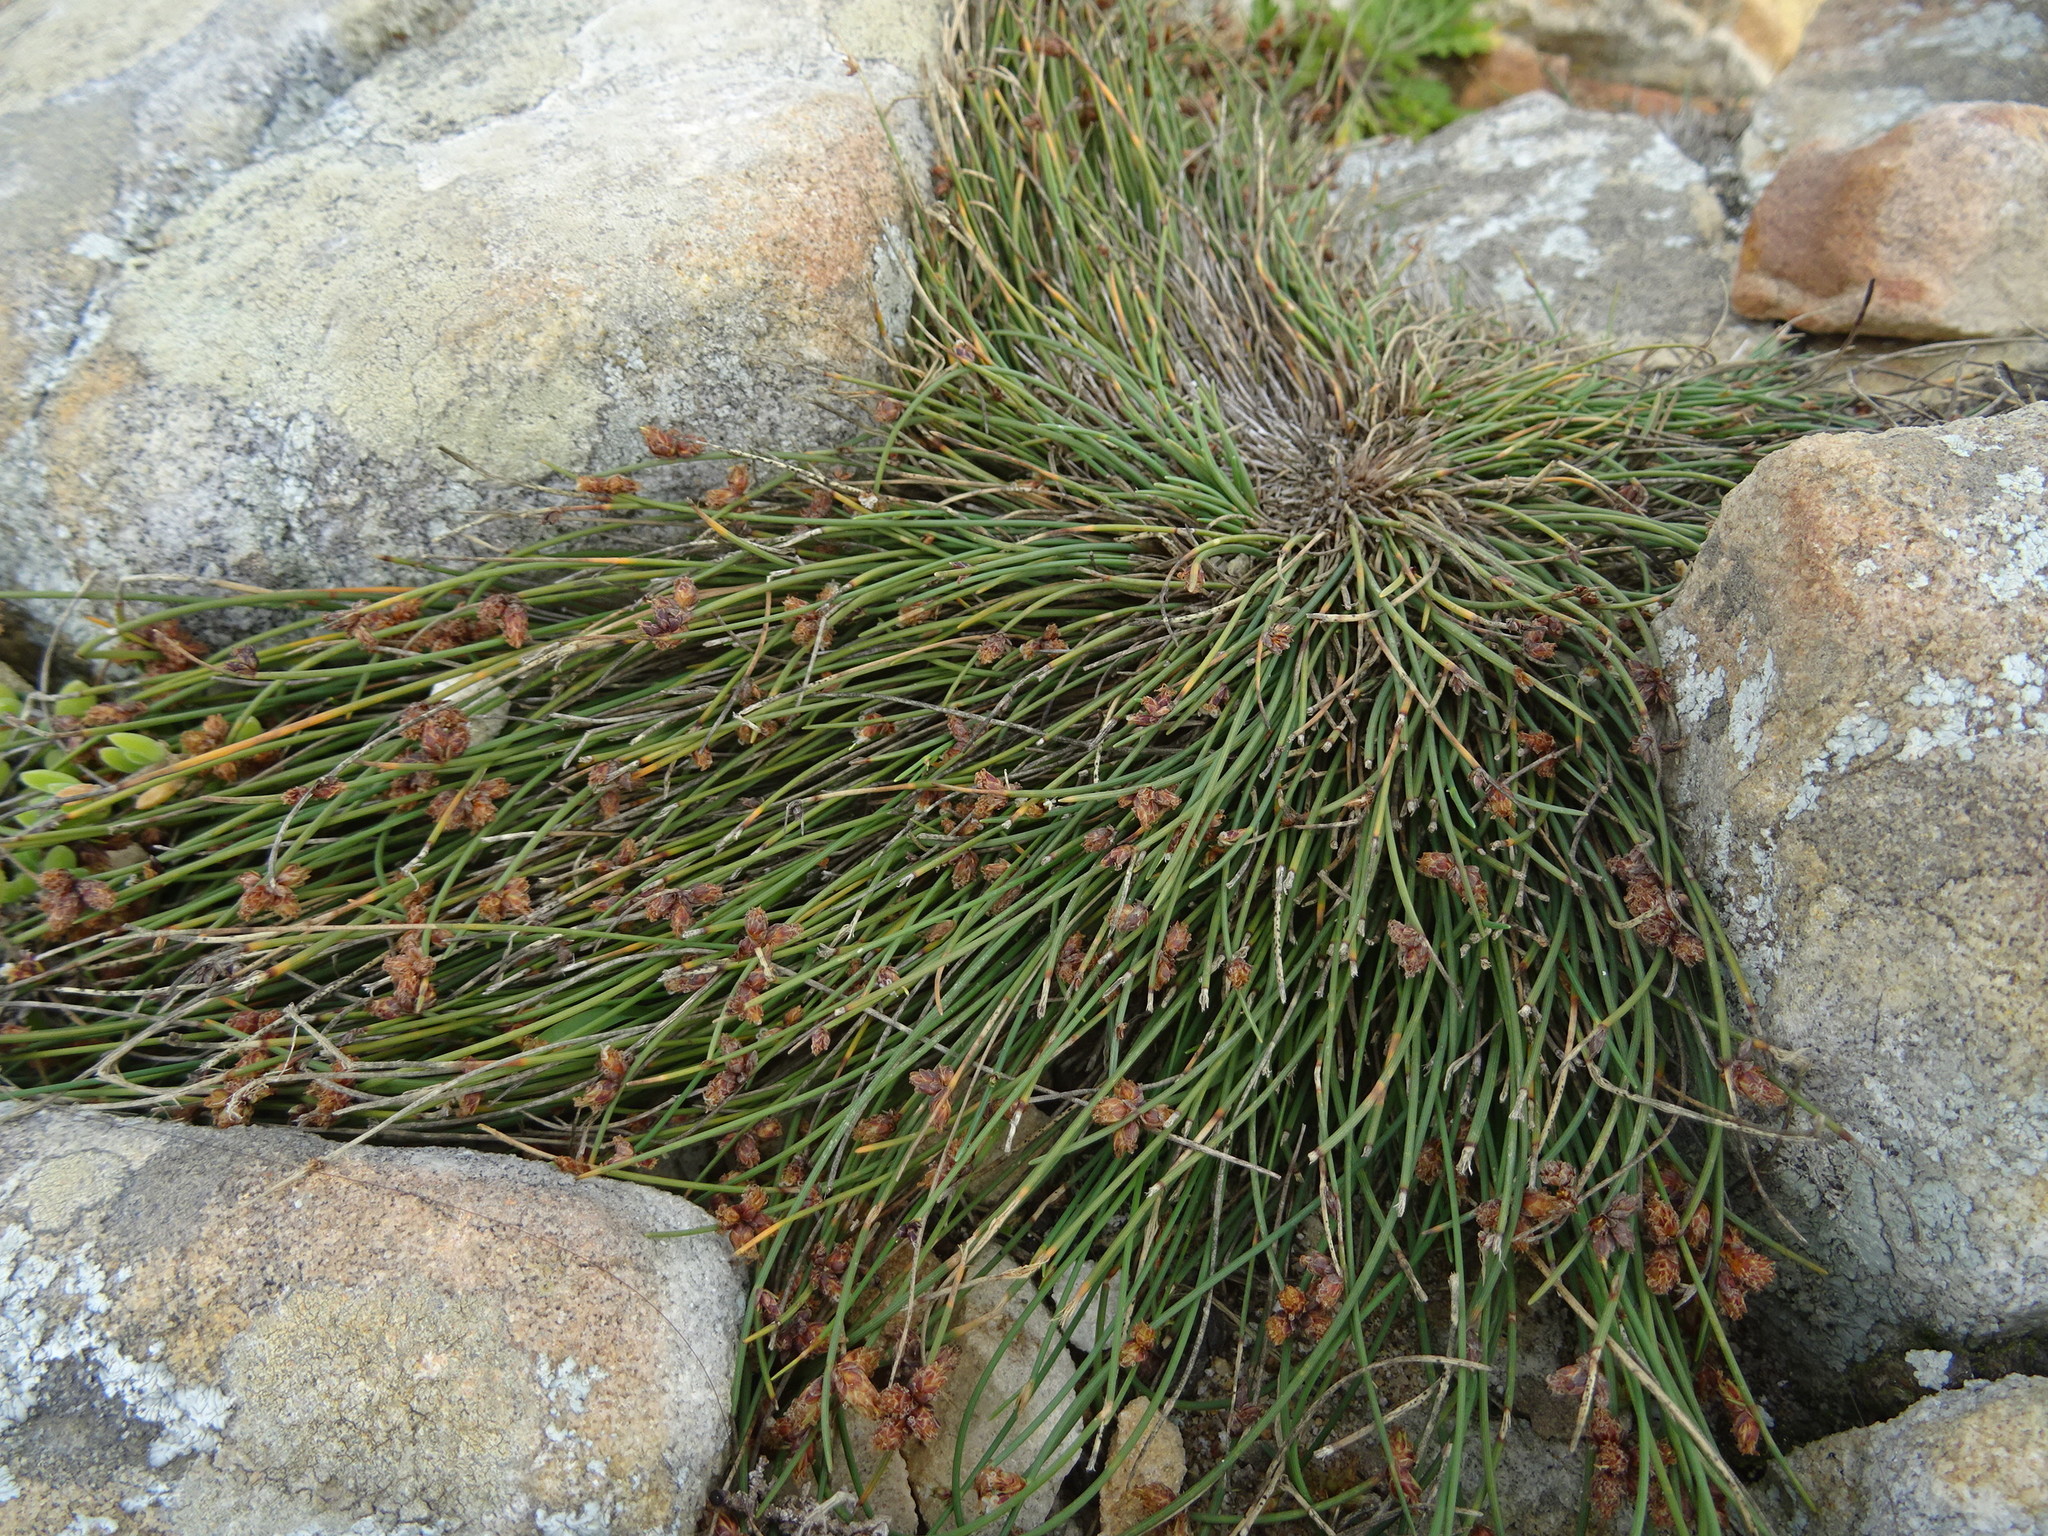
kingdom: Plantae
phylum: Tracheophyta
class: Liliopsida
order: Poales
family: Cyperaceae
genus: Ficinia
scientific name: Ficinia lateralis
